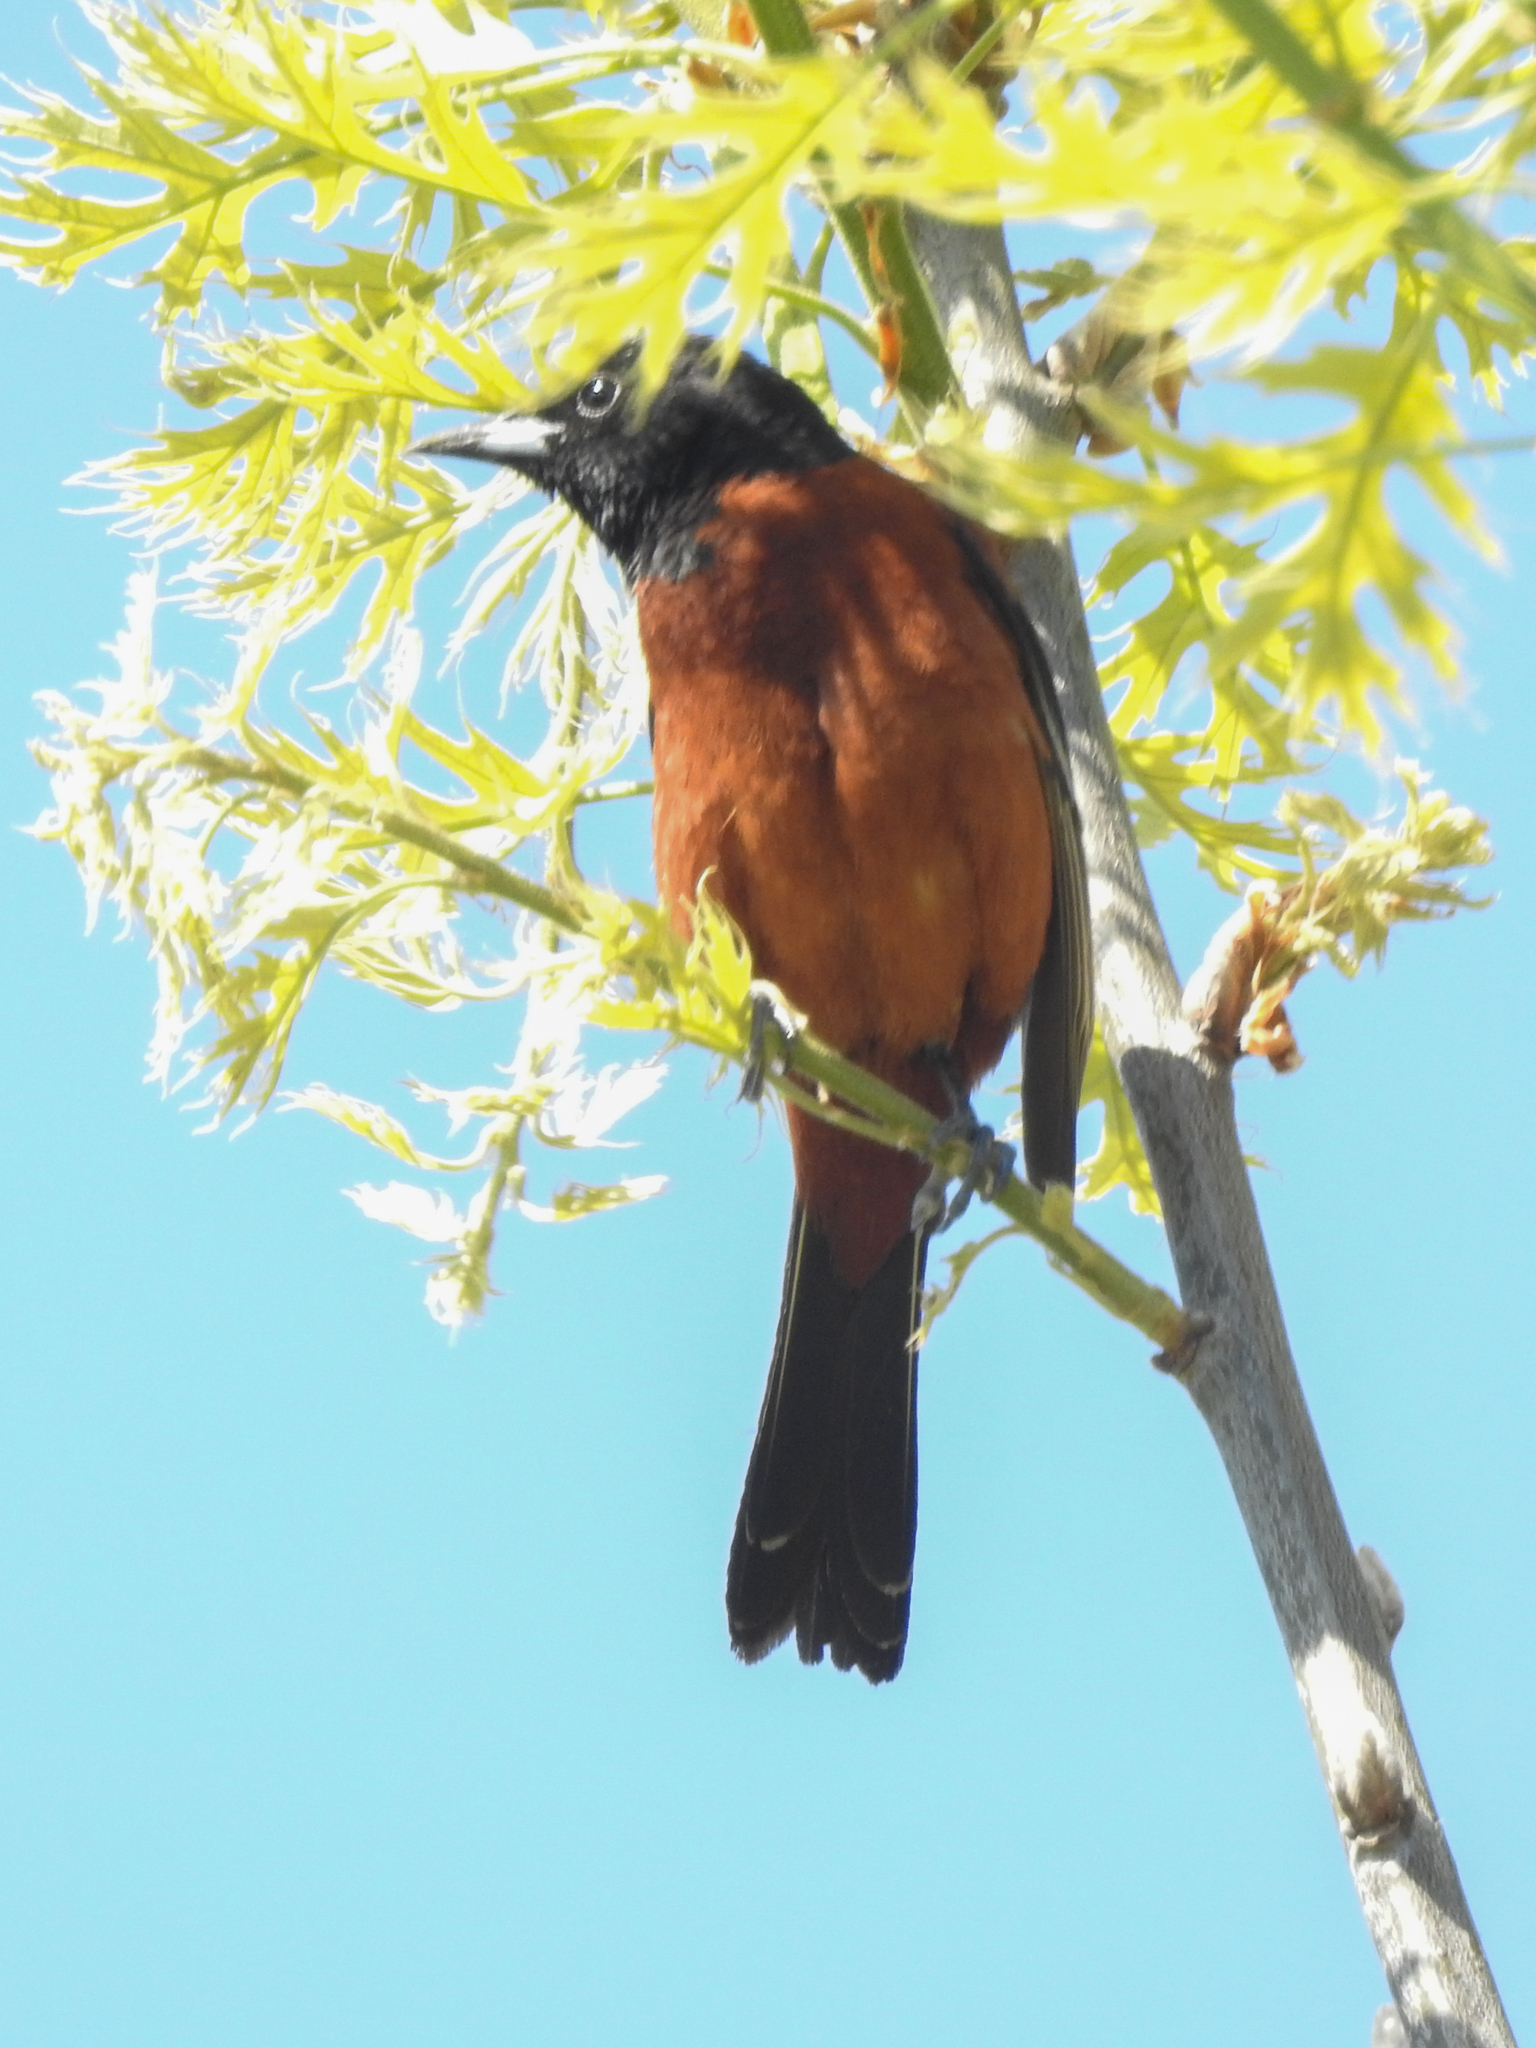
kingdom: Animalia
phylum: Chordata
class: Aves
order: Passeriformes
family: Icteridae
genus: Icterus
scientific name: Icterus spurius
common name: Orchard oriole
